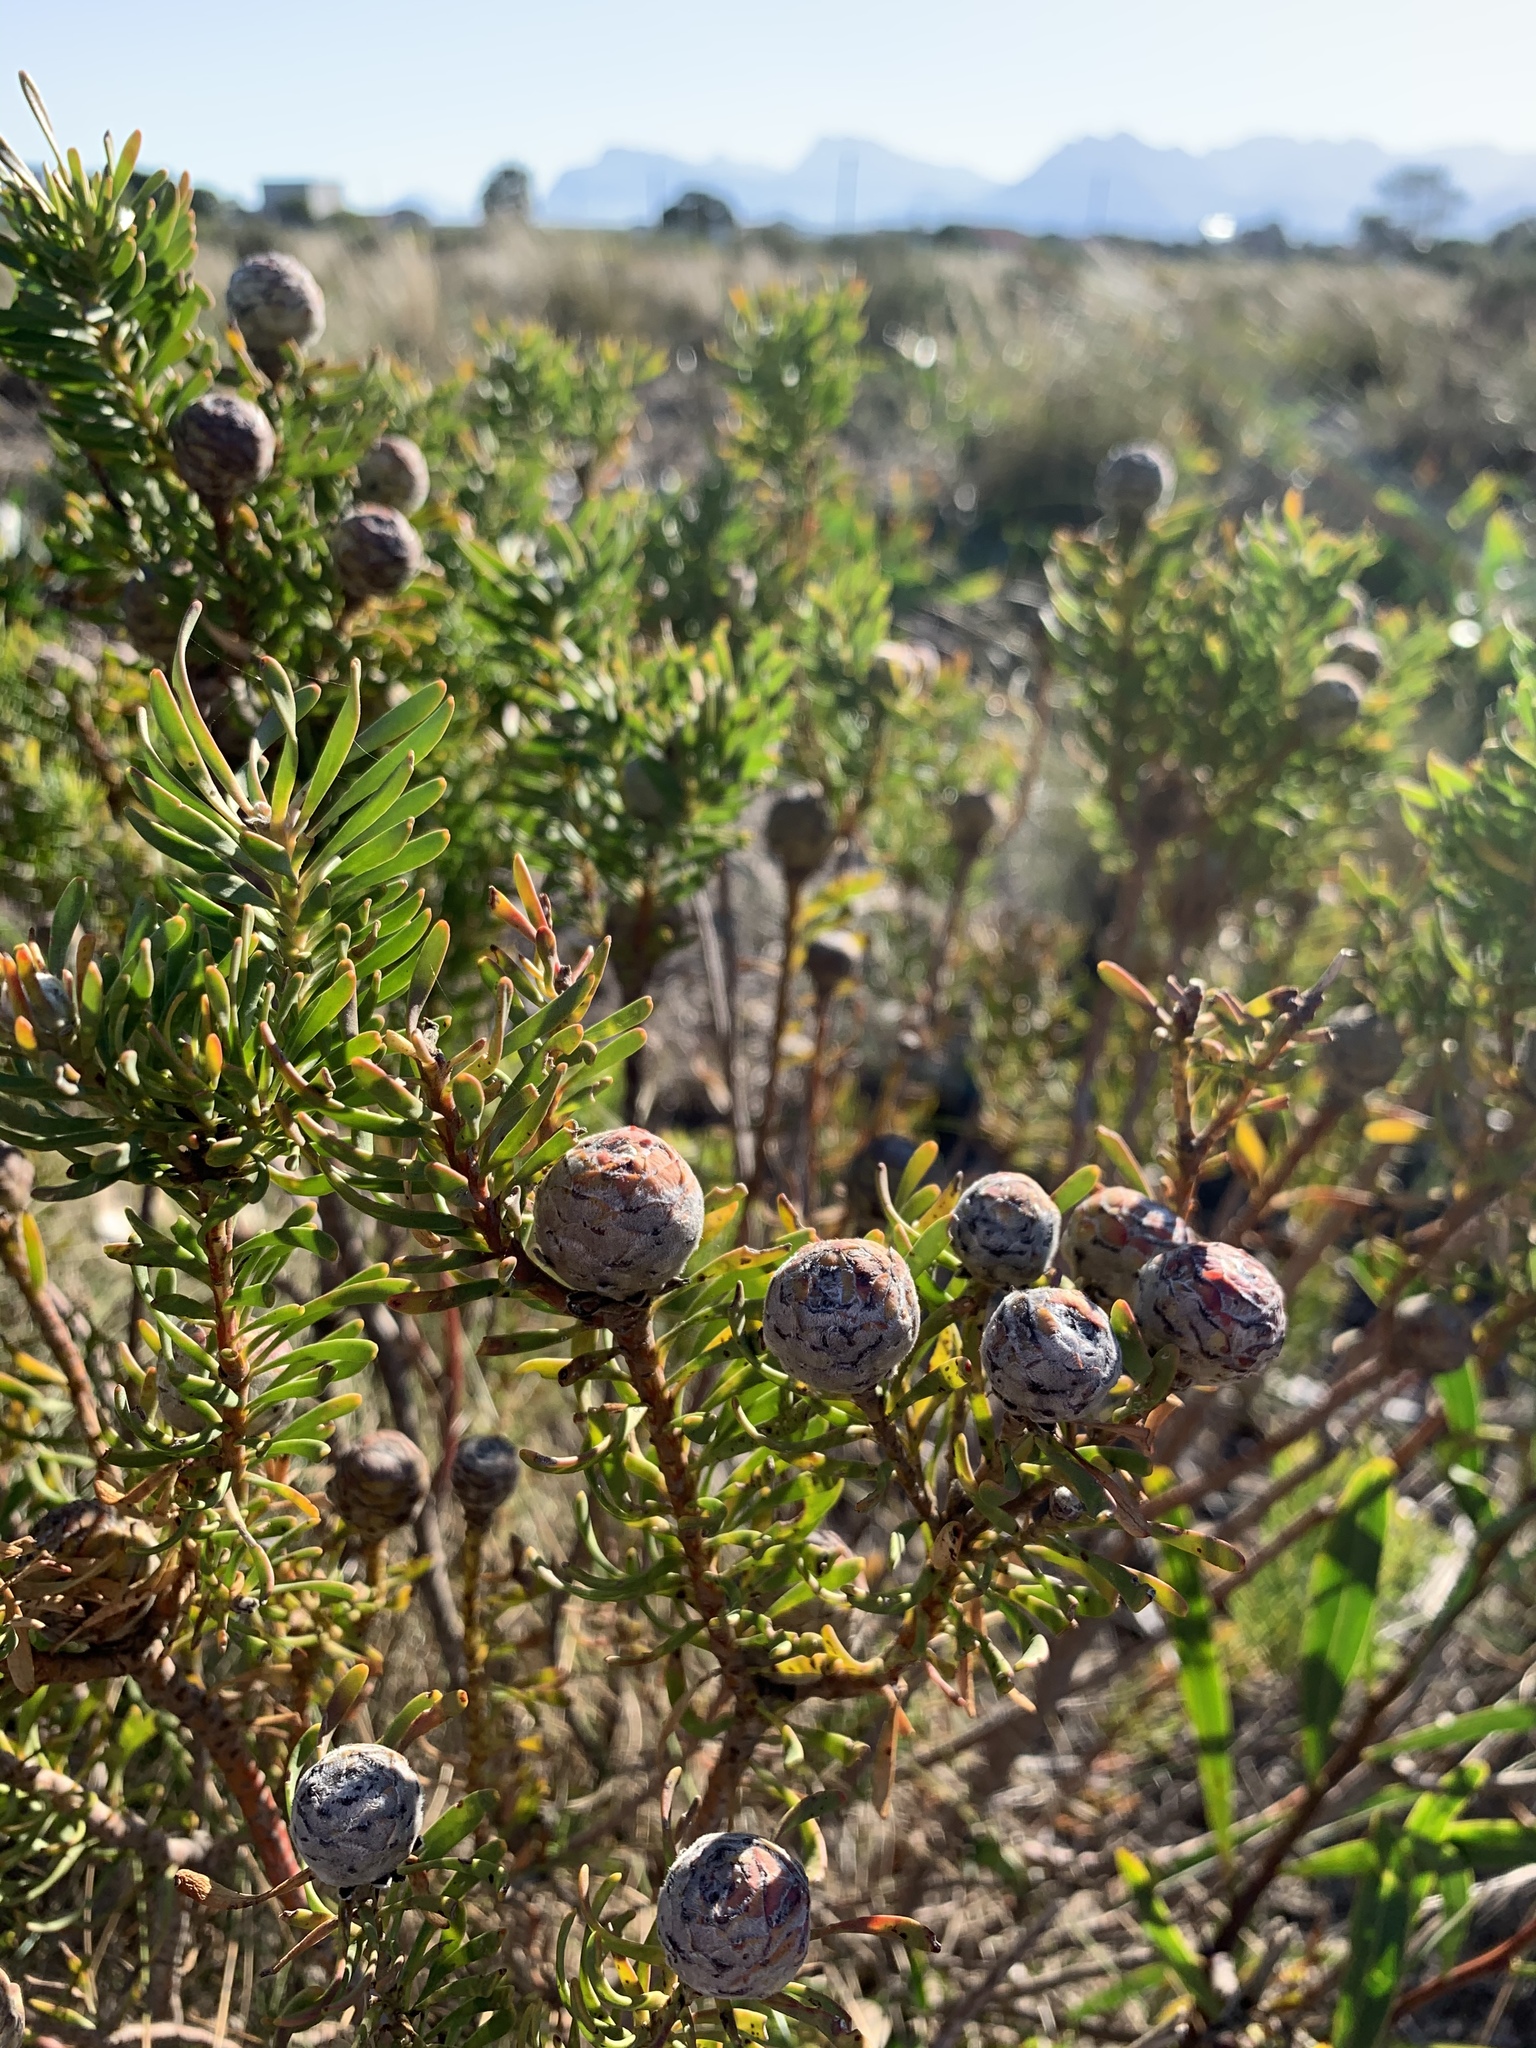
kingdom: Plantae
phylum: Tracheophyta
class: Magnoliopsida
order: Proteales
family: Proteaceae
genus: Leucadendron
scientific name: Leucadendron linifolium
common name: Line-leaf conebush
